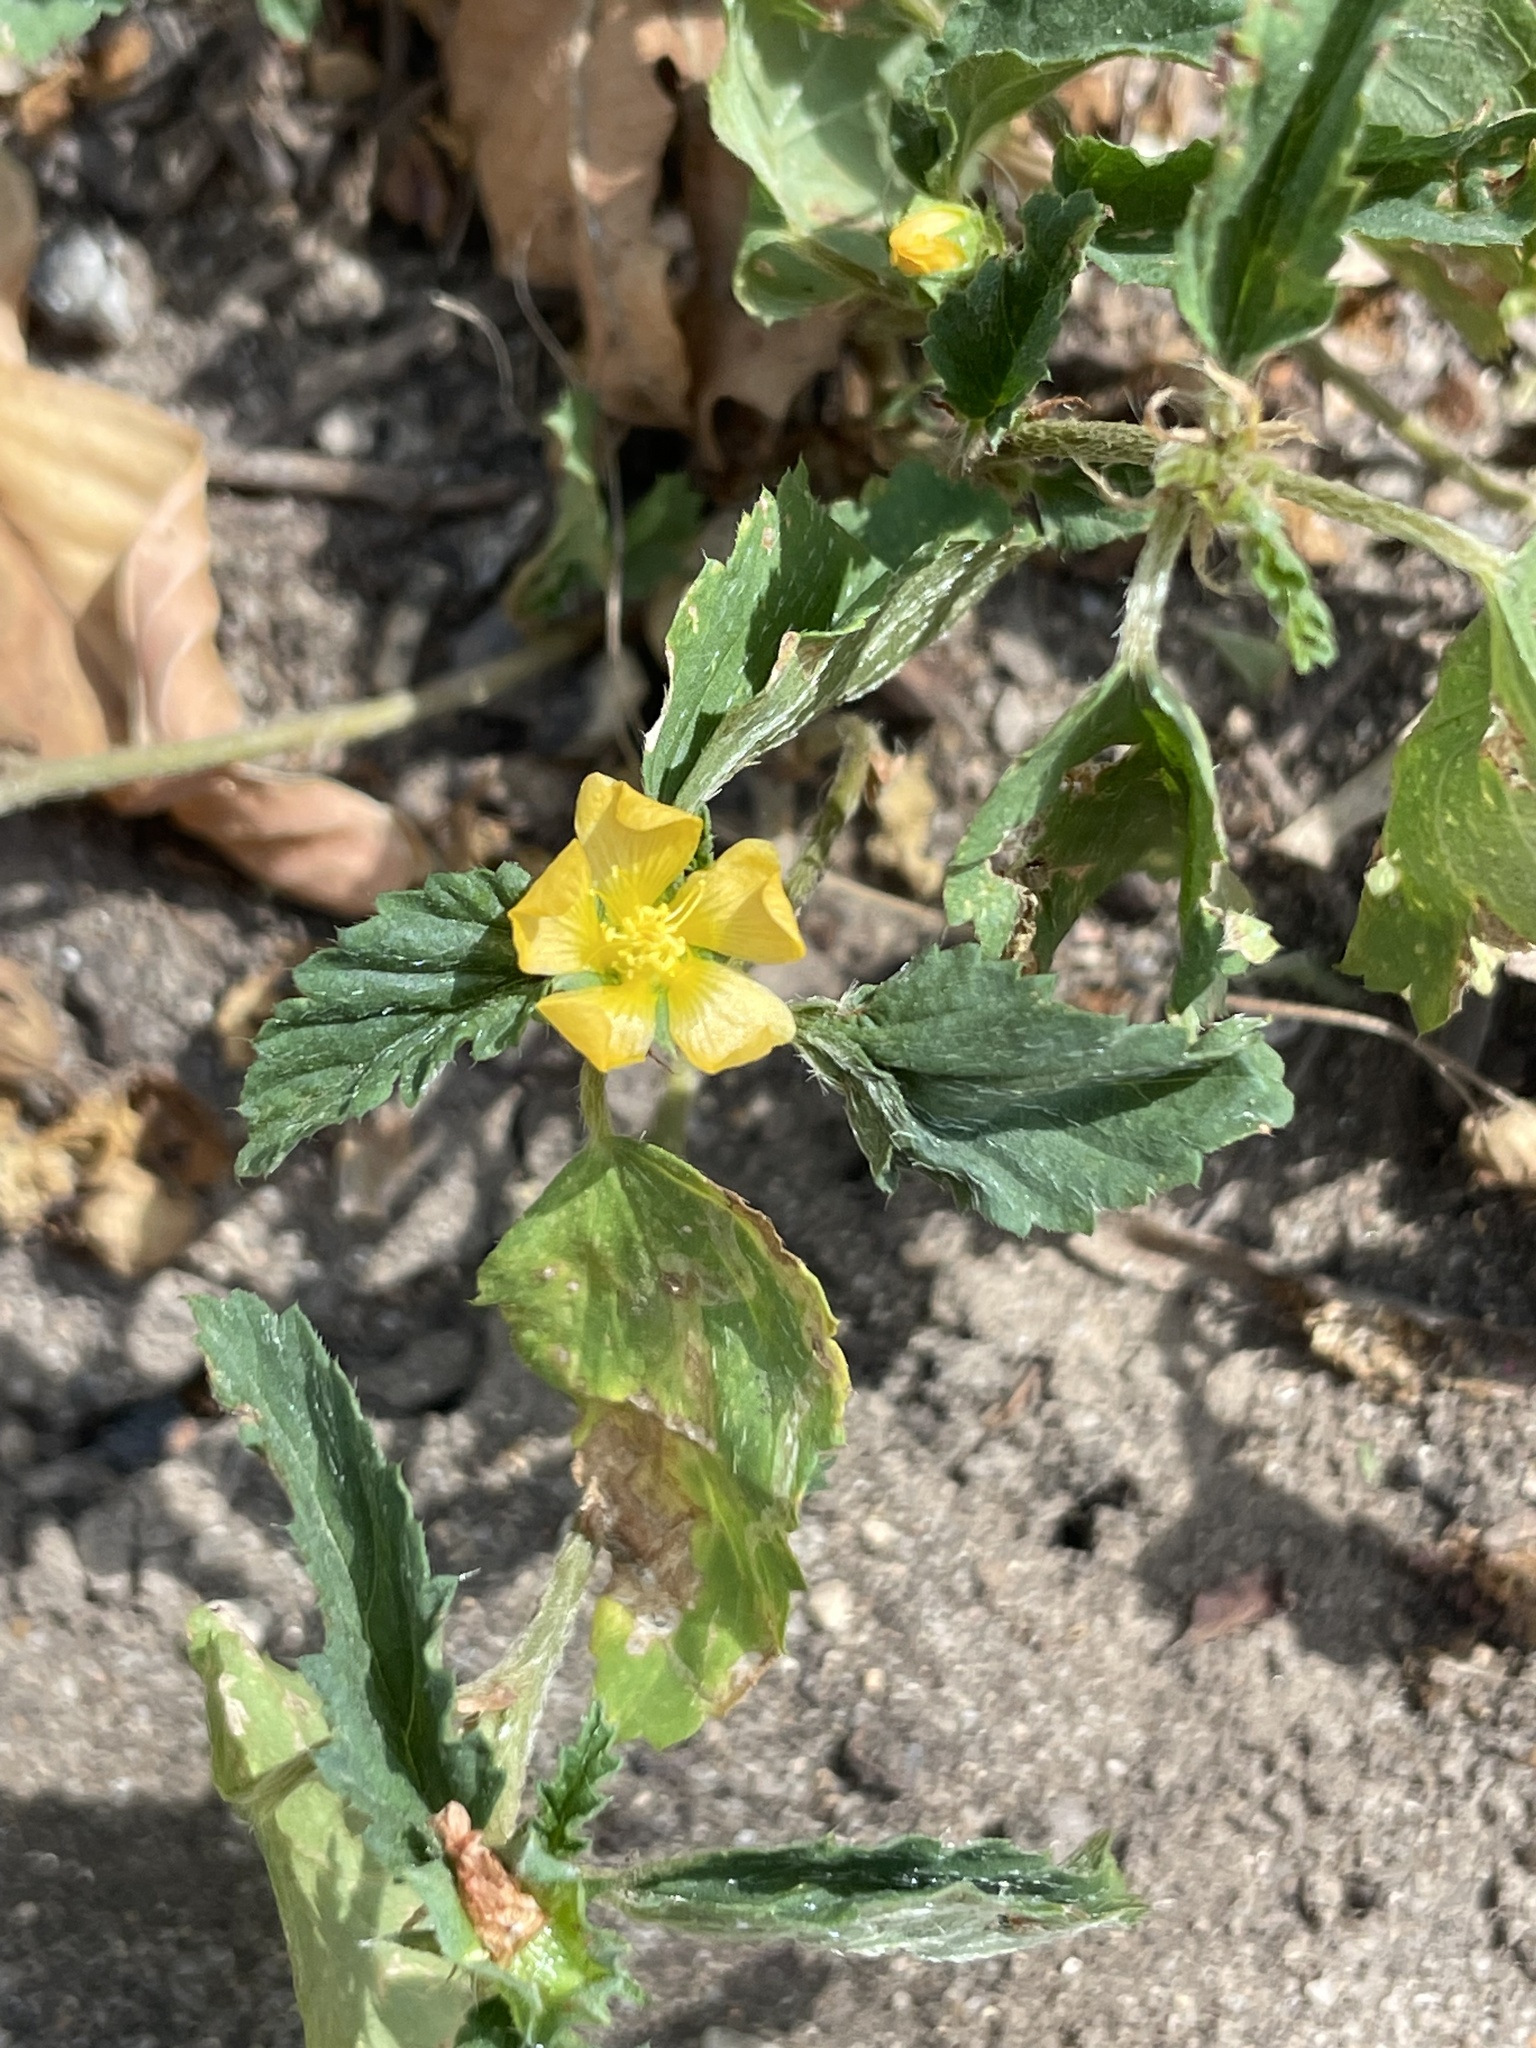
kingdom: Plantae
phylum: Tracheophyta
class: Magnoliopsida
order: Malvales
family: Malvaceae
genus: Malvastrum
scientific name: Malvastrum coromandelianum
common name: Threelobe false mallow
